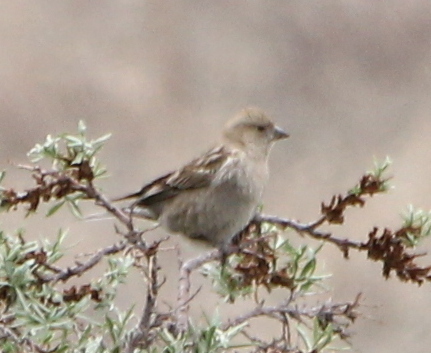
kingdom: Animalia
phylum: Chordata
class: Aves
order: Passeriformes
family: Fringillidae
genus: Leucosticte
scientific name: Leucosticte nemoricola
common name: Plain mountain finch
